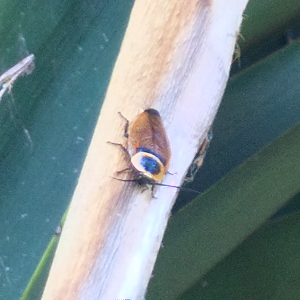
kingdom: Animalia
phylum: Arthropoda
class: Insecta
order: Blattodea
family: Ectobiidae
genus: Ellipsidion
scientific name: Ellipsidion australe
